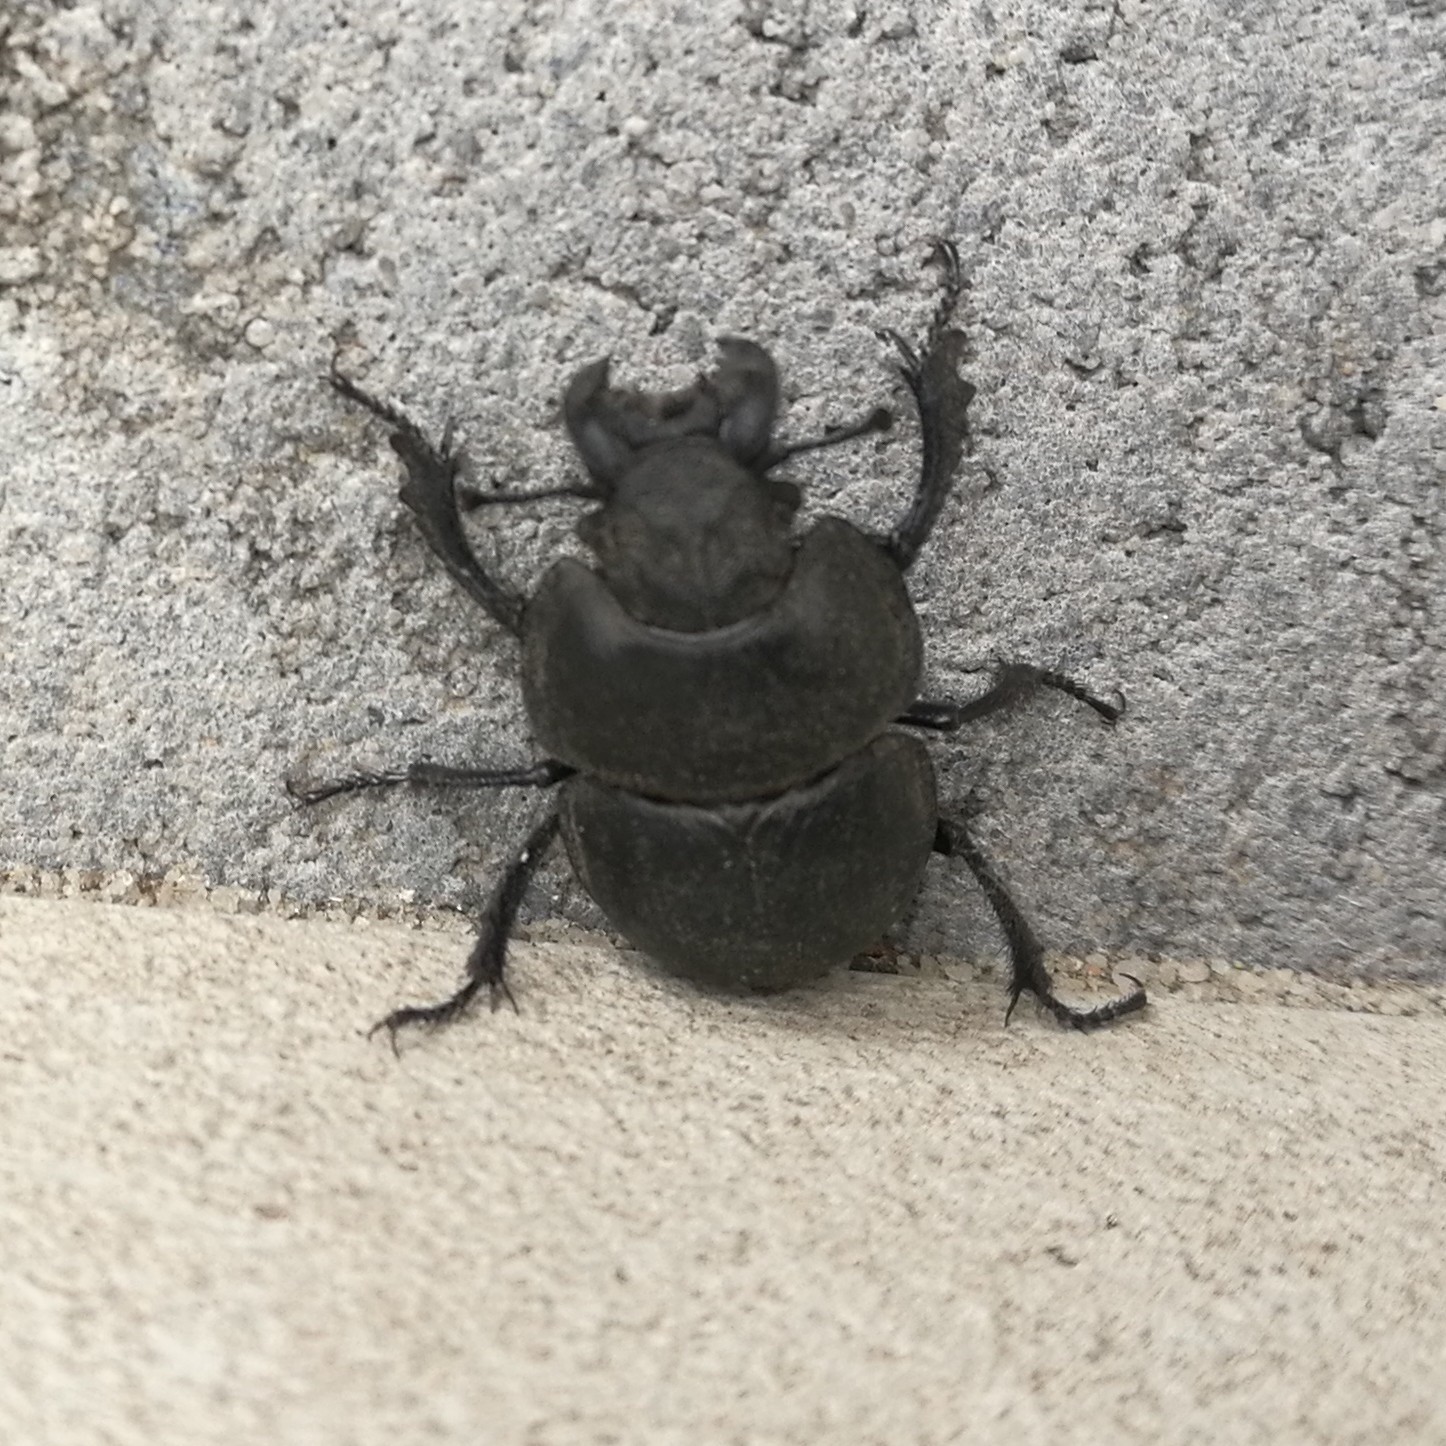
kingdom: Animalia
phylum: Arthropoda
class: Insecta
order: Coleoptera
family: Geotrupidae
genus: Lethrus
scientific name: Lethrus apterus
